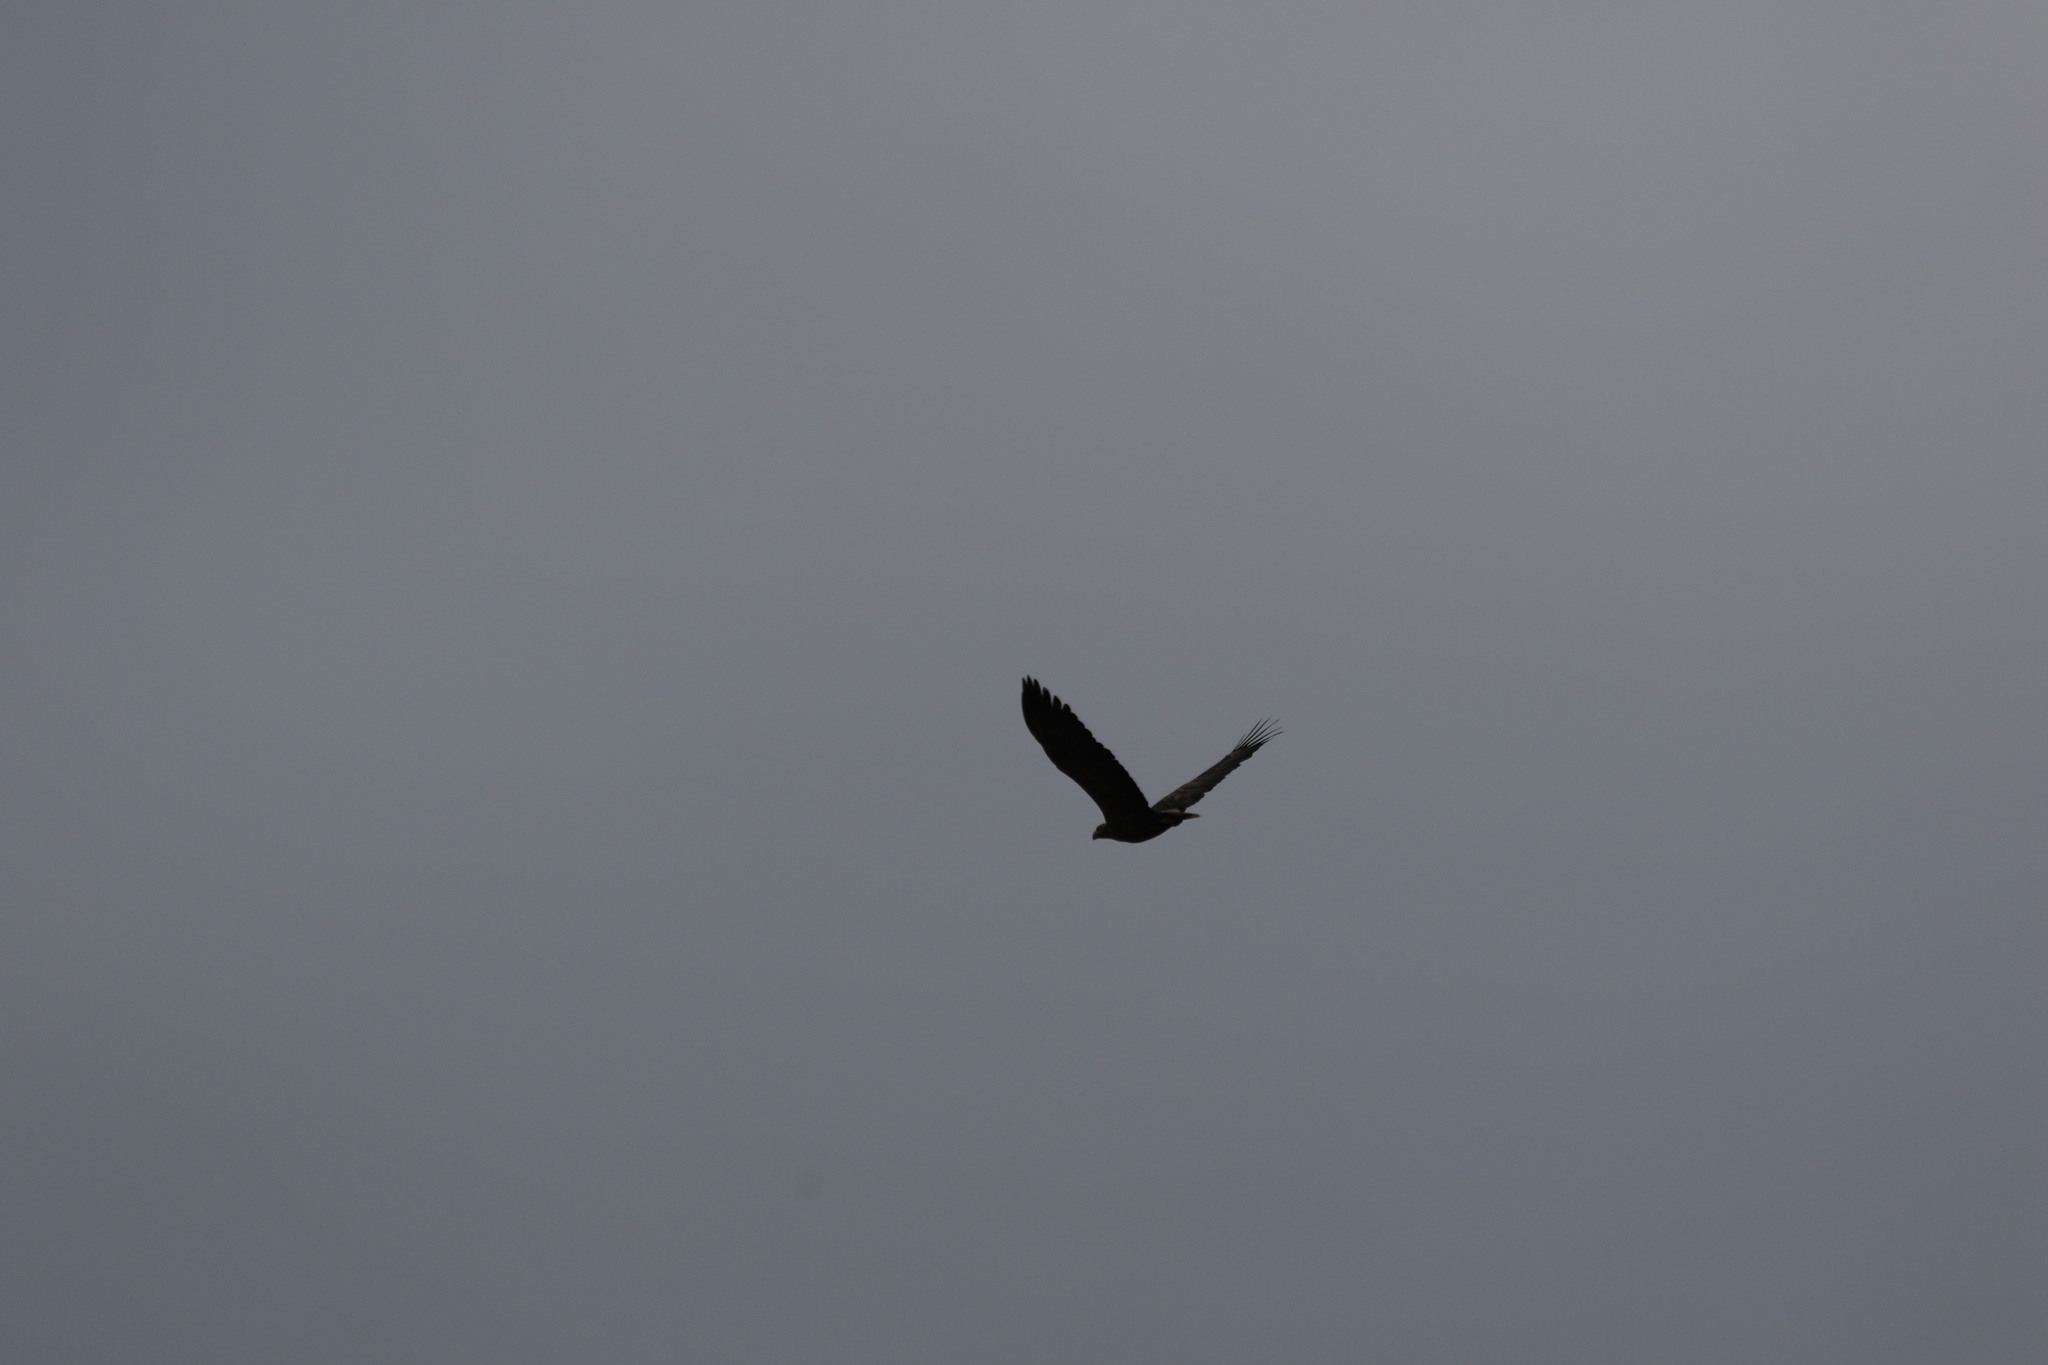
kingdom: Animalia
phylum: Chordata
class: Aves
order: Accipitriformes
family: Accipitridae
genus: Haliaeetus
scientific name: Haliaeetus albicilla
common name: White-tailed eagle
